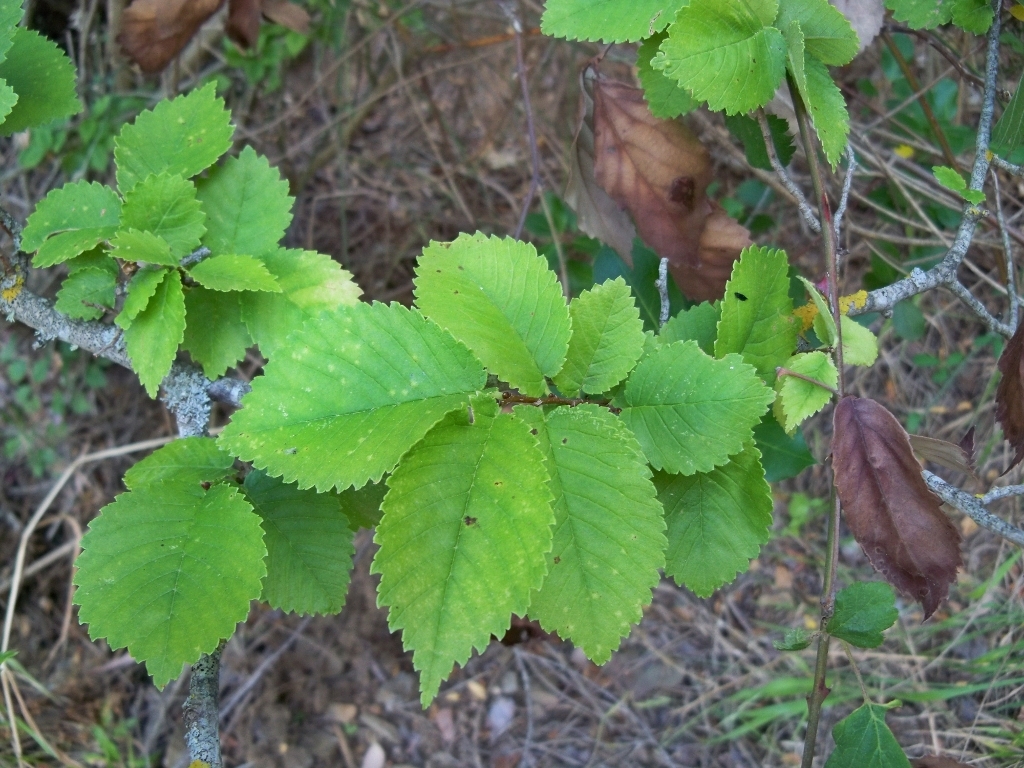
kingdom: Plantae
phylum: Tracheophyta
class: Magnoliopsida
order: Rosales
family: Ulmaceae
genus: Ulmus
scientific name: Ulmus minor
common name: Small-leaved elm
